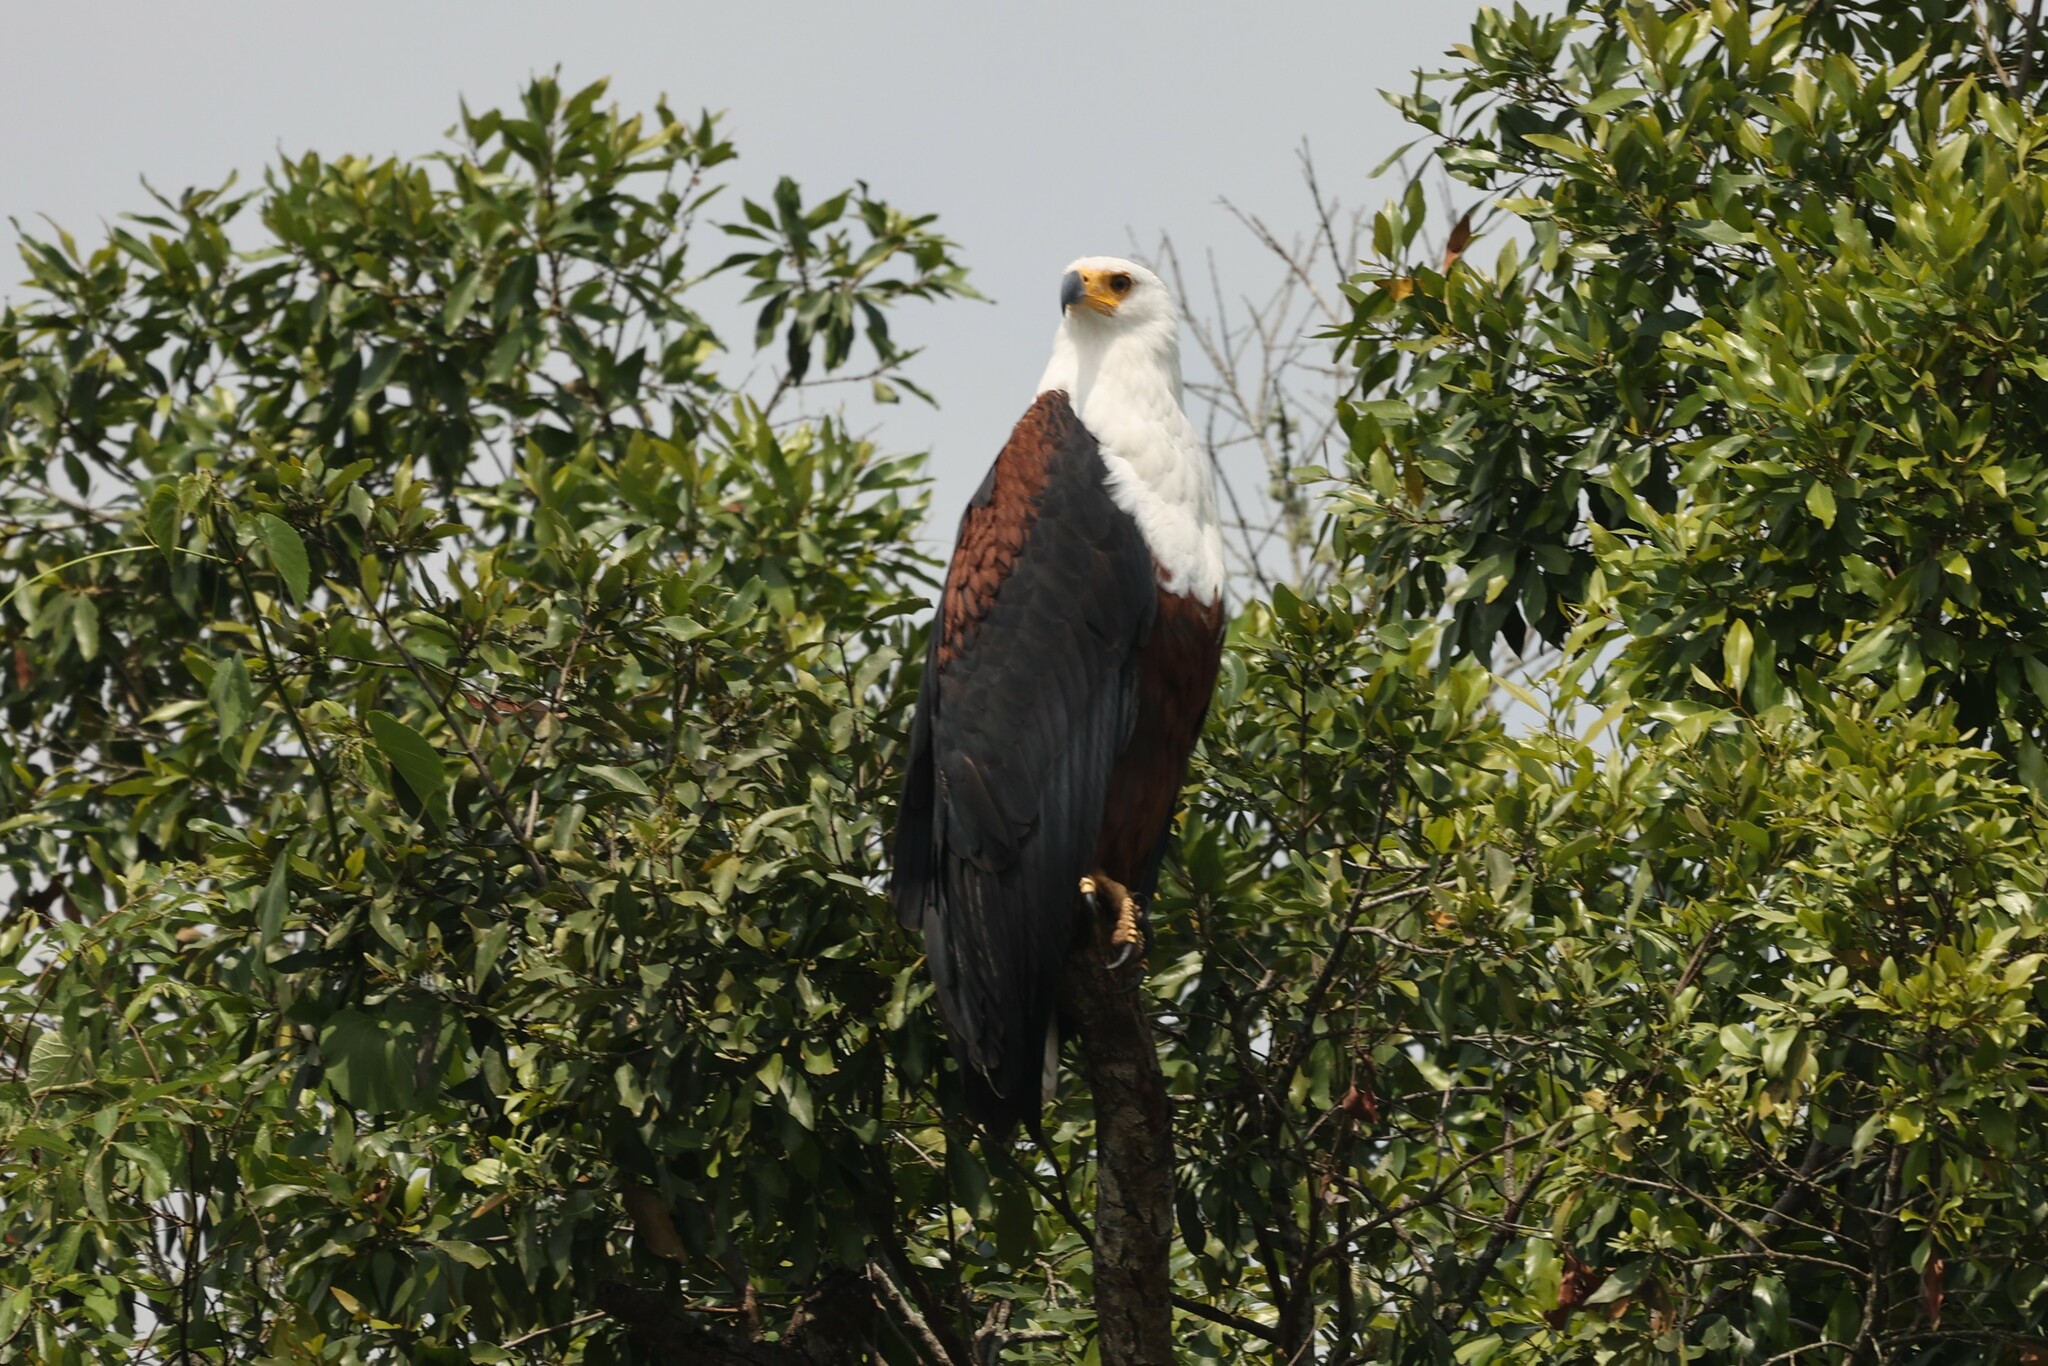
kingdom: Animalia
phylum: Chordata
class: Aves
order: Accipitriformes
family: Accipitridae
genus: Haliaeetus
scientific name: Haliaeetus vocifer
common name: African fish eagle
